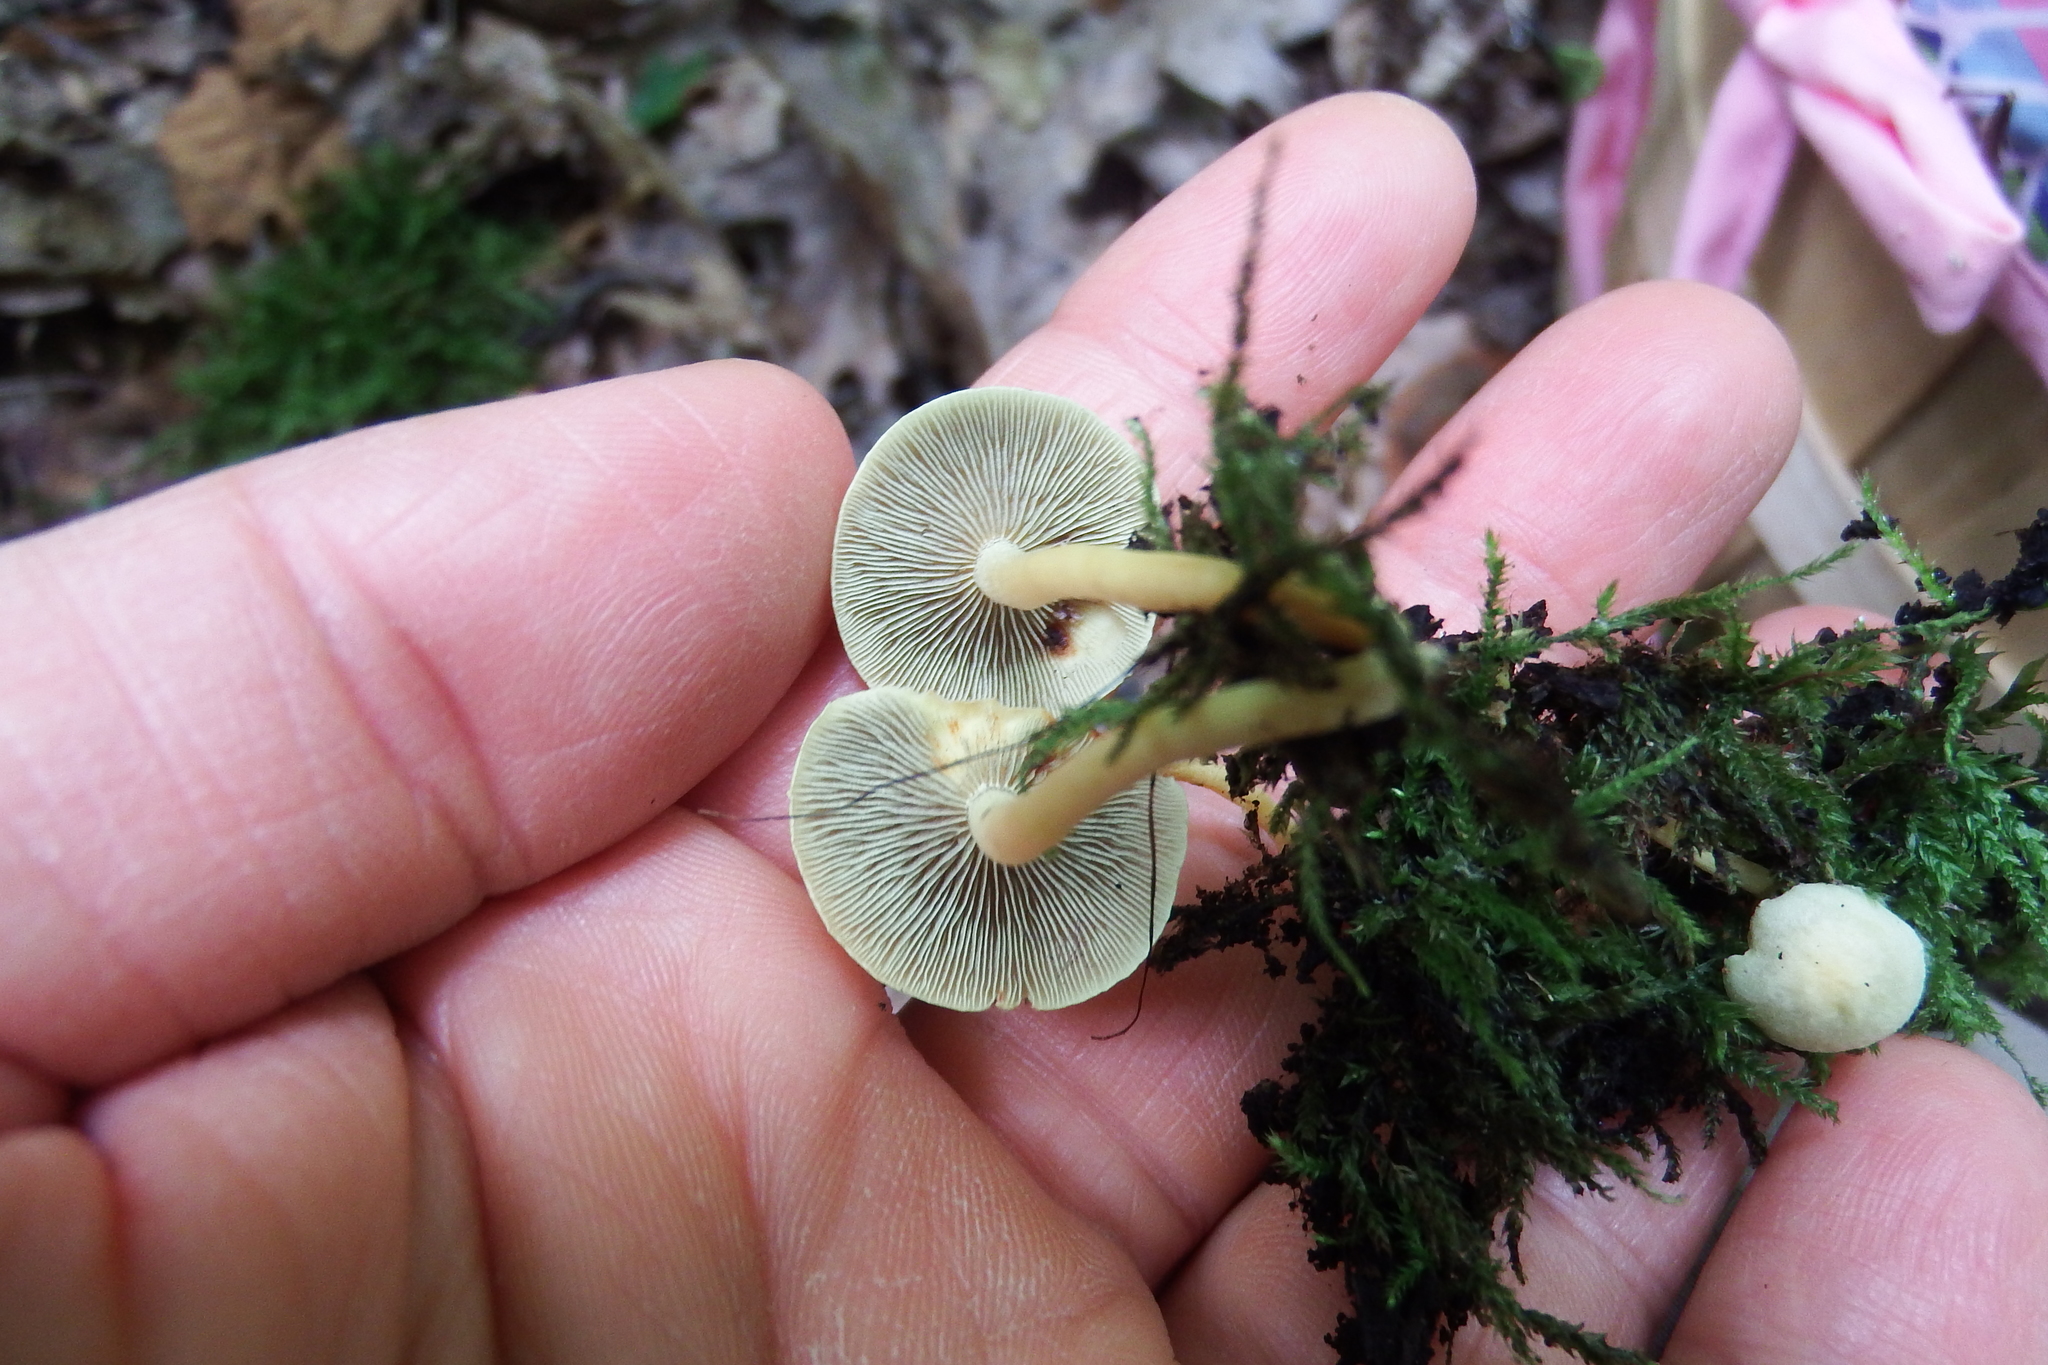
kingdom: Fungi
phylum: Basidiomycota
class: Agaricomycetes
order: Agaricales
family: Strophariaceae
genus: Hypholoma
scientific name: Hypholoma fasciculare
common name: Sulphur tuft
